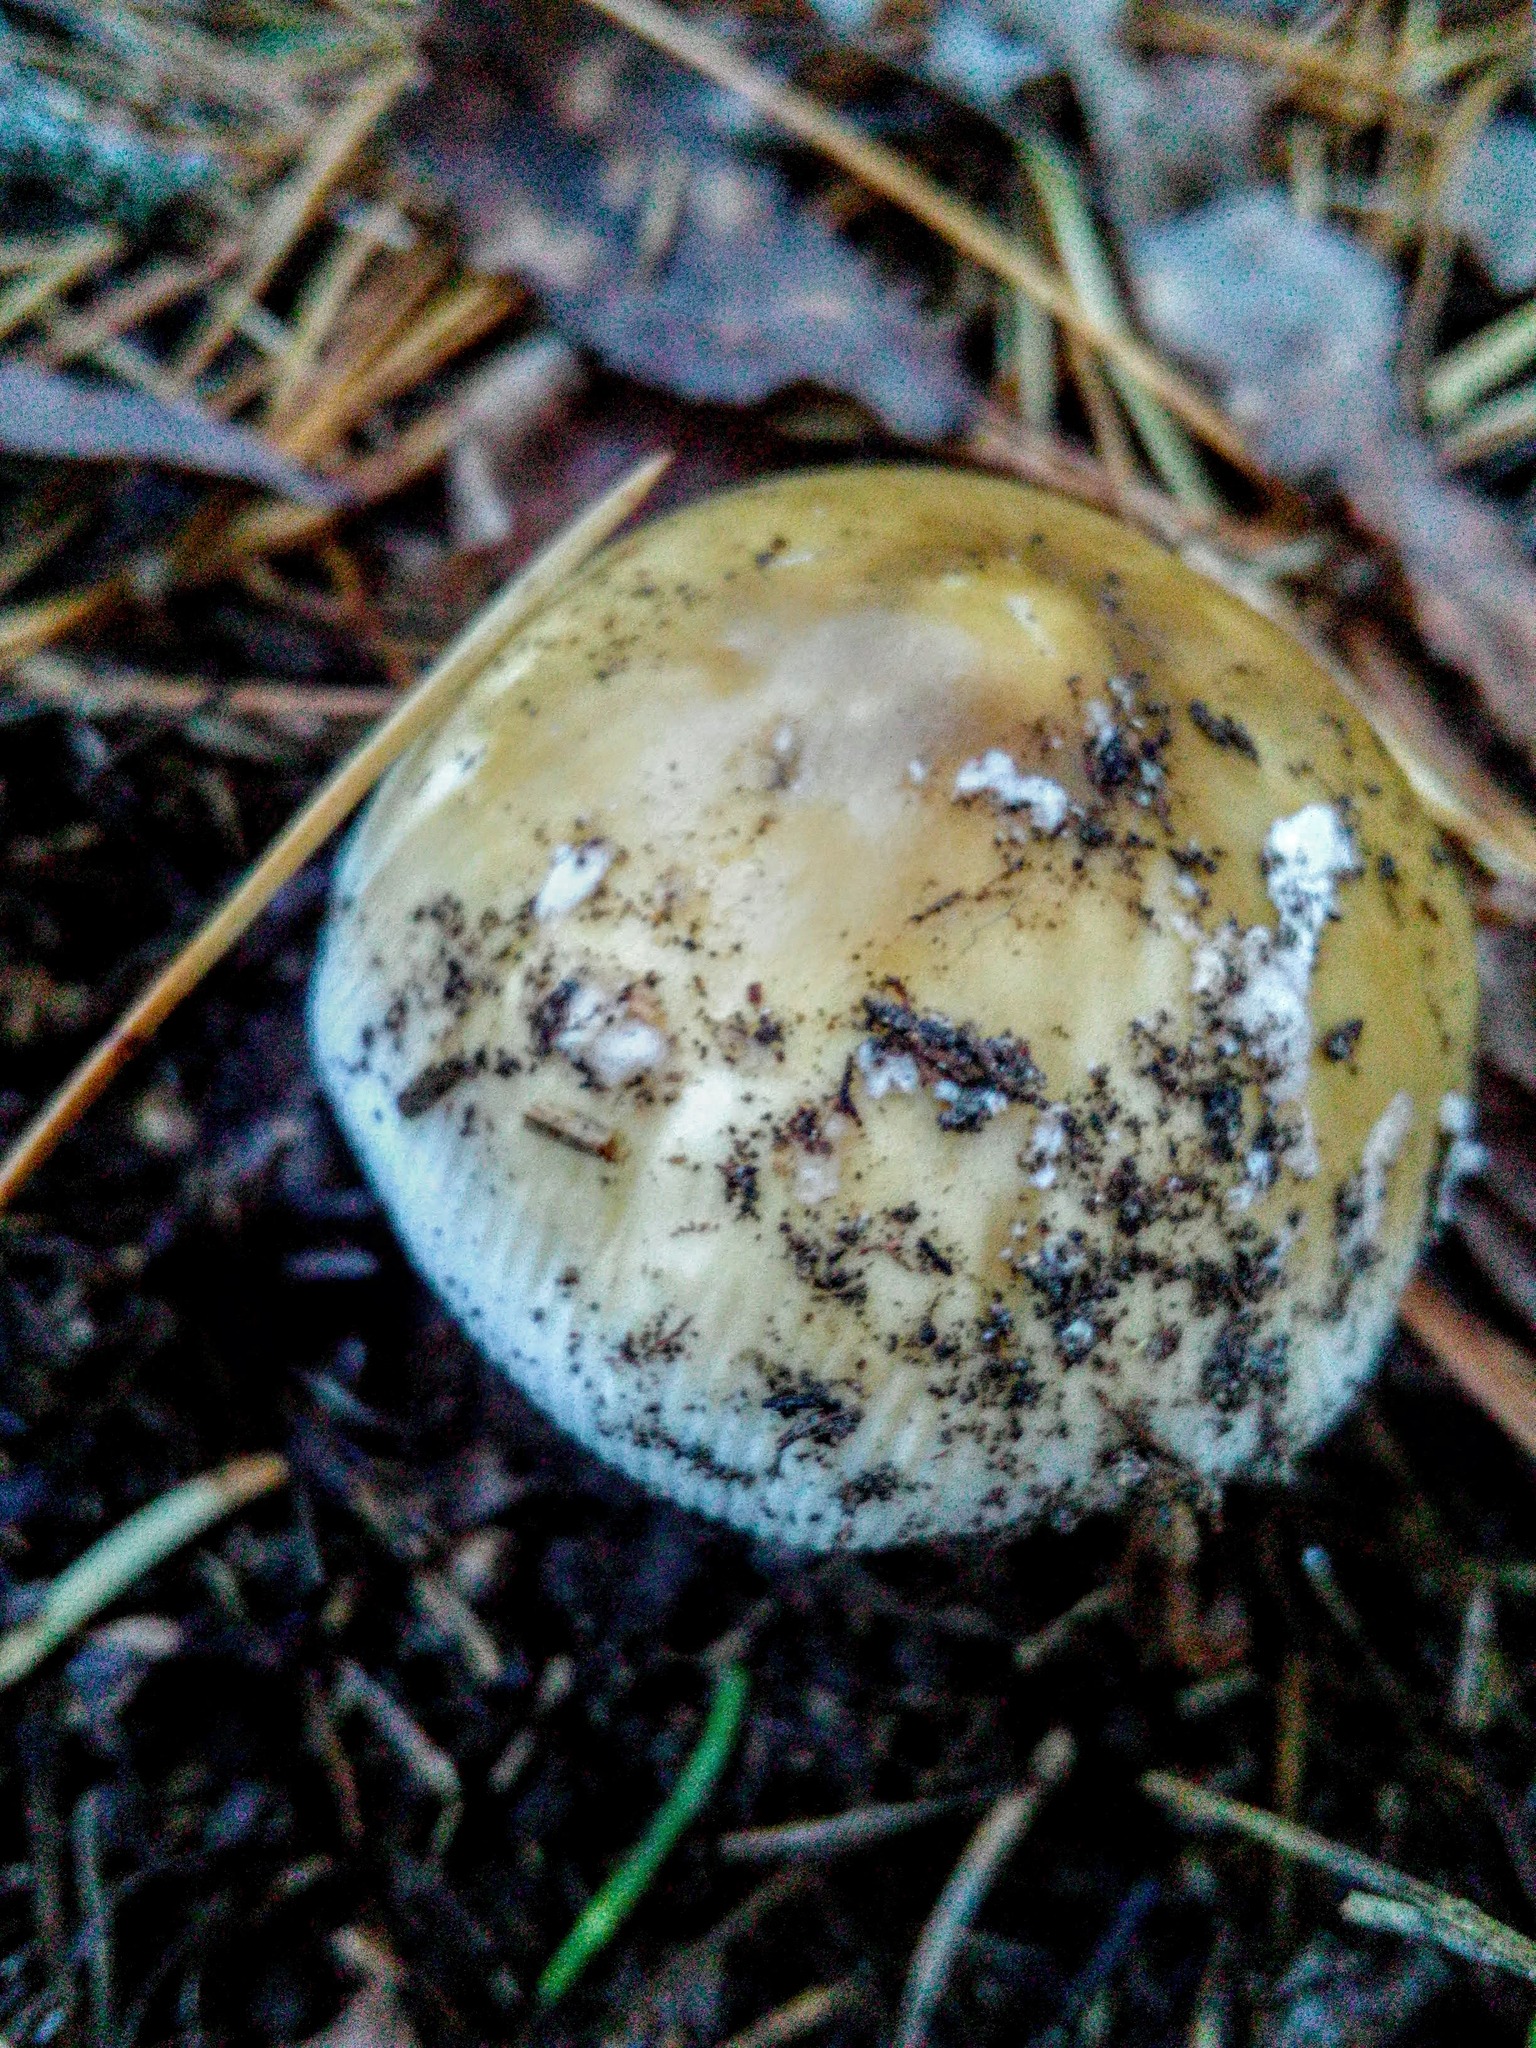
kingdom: Fungi
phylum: Basidiomycota
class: Agaricomycetes
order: Agaricales
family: Amanitaceae
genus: Amanita
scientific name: Amanita fulva
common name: Tawny grisette
